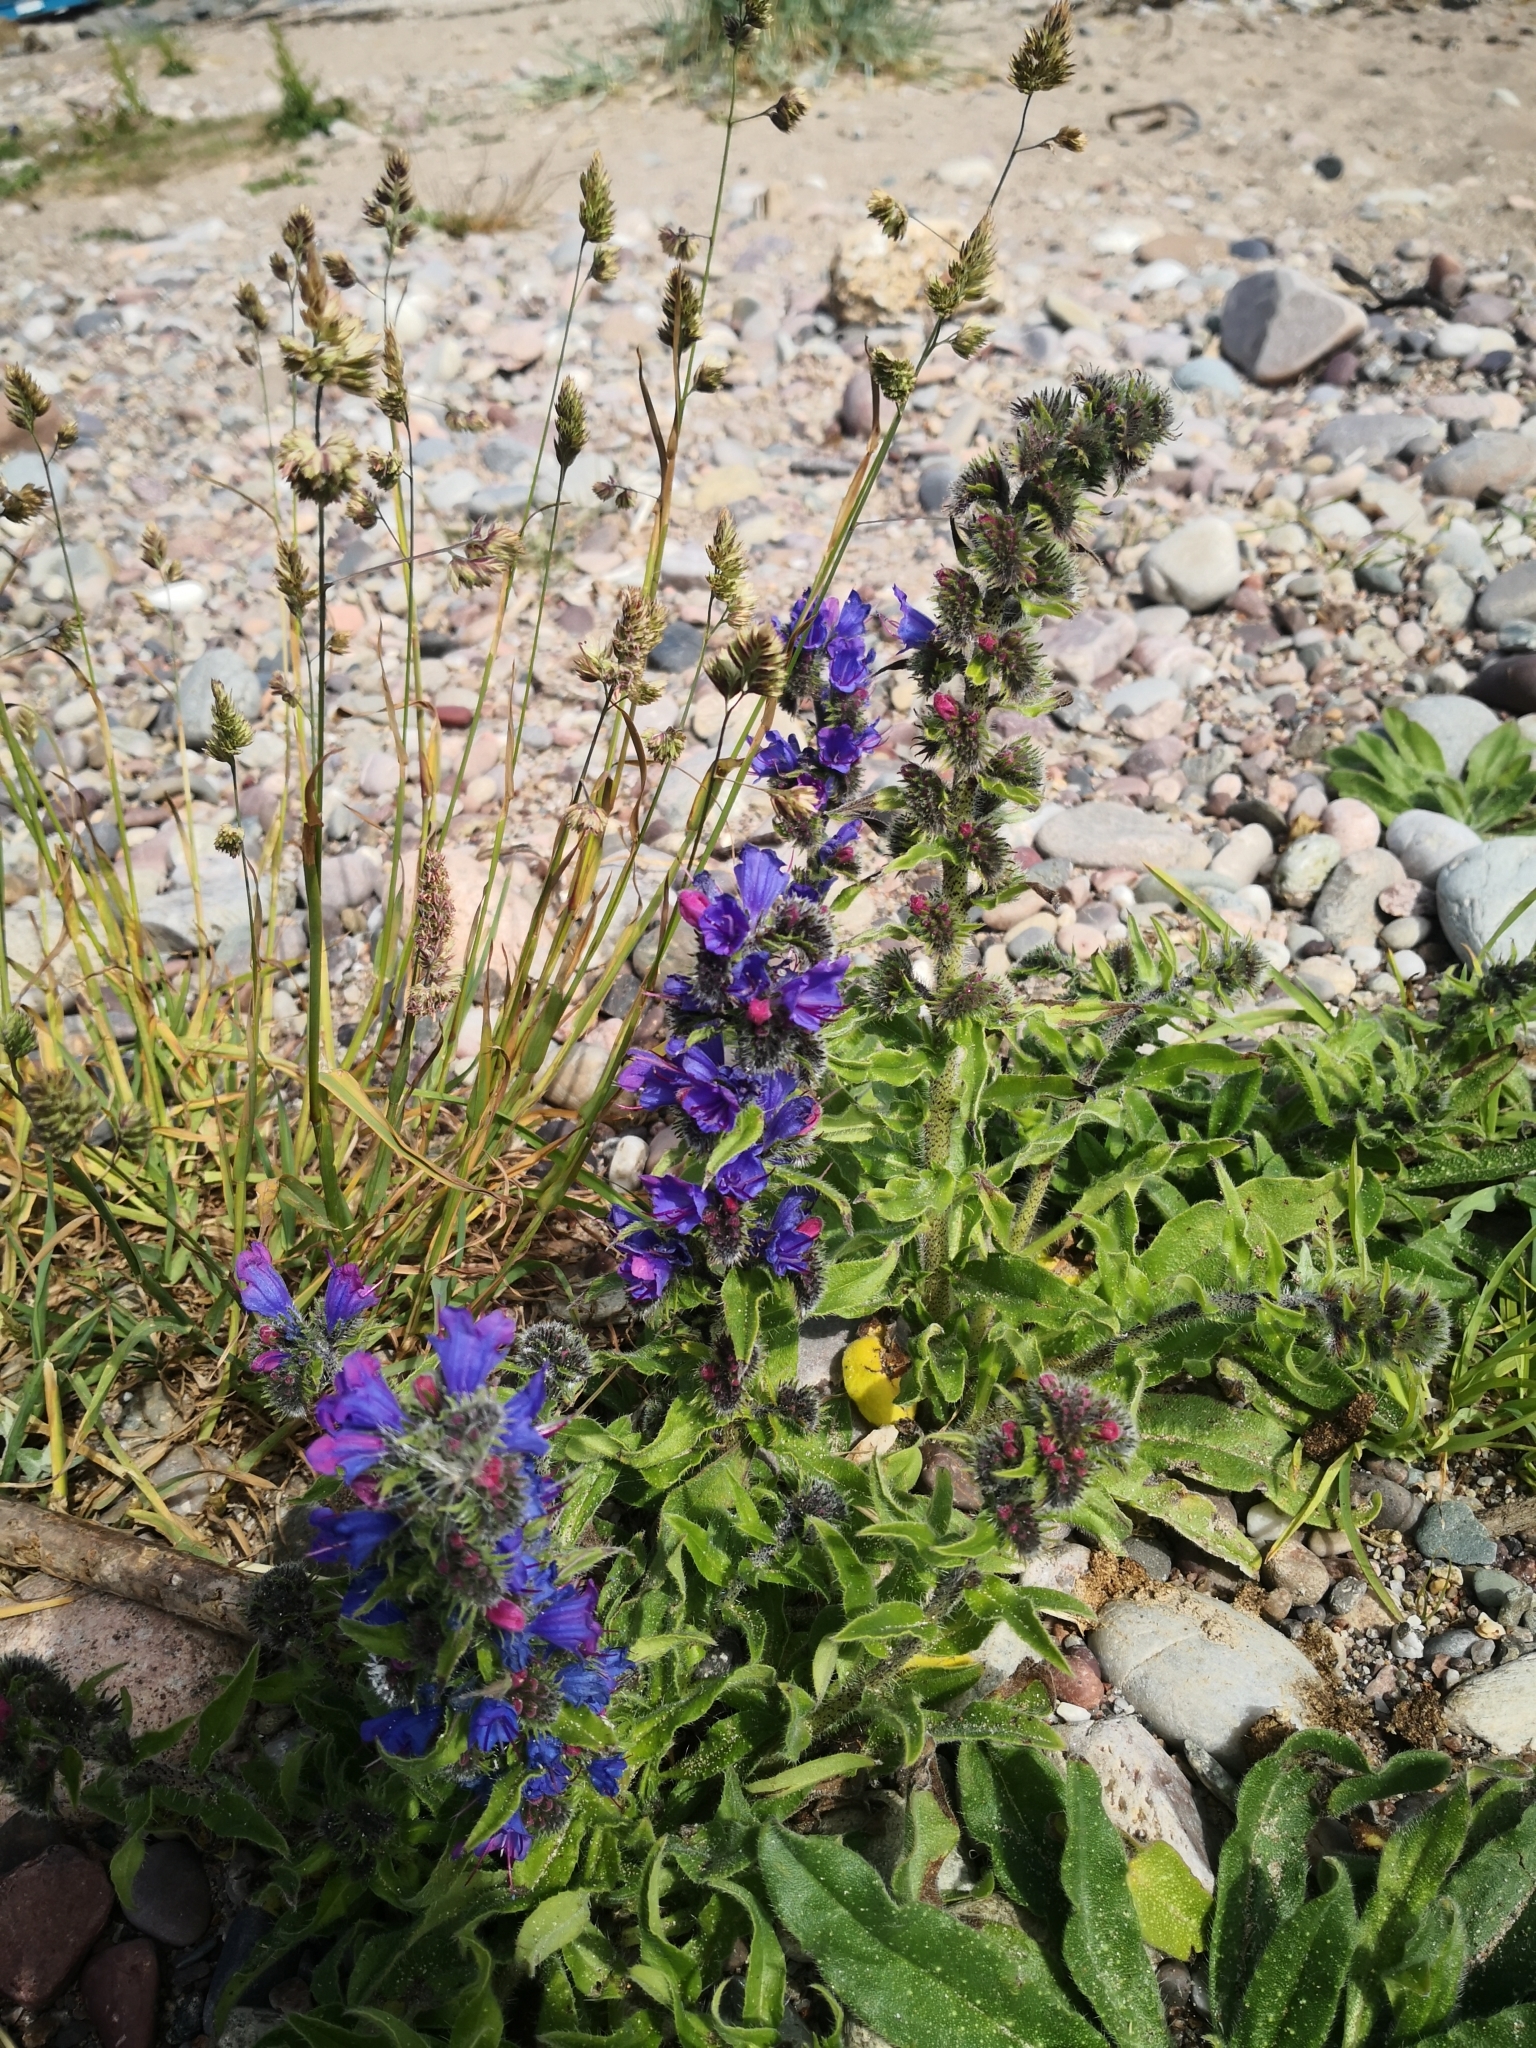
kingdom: Plantae
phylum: Tracheophyta
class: Magnoliopsida
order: Boraginales
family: Boraginaceae
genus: Echium
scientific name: Echium vulgare
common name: Common viper's bugloss
